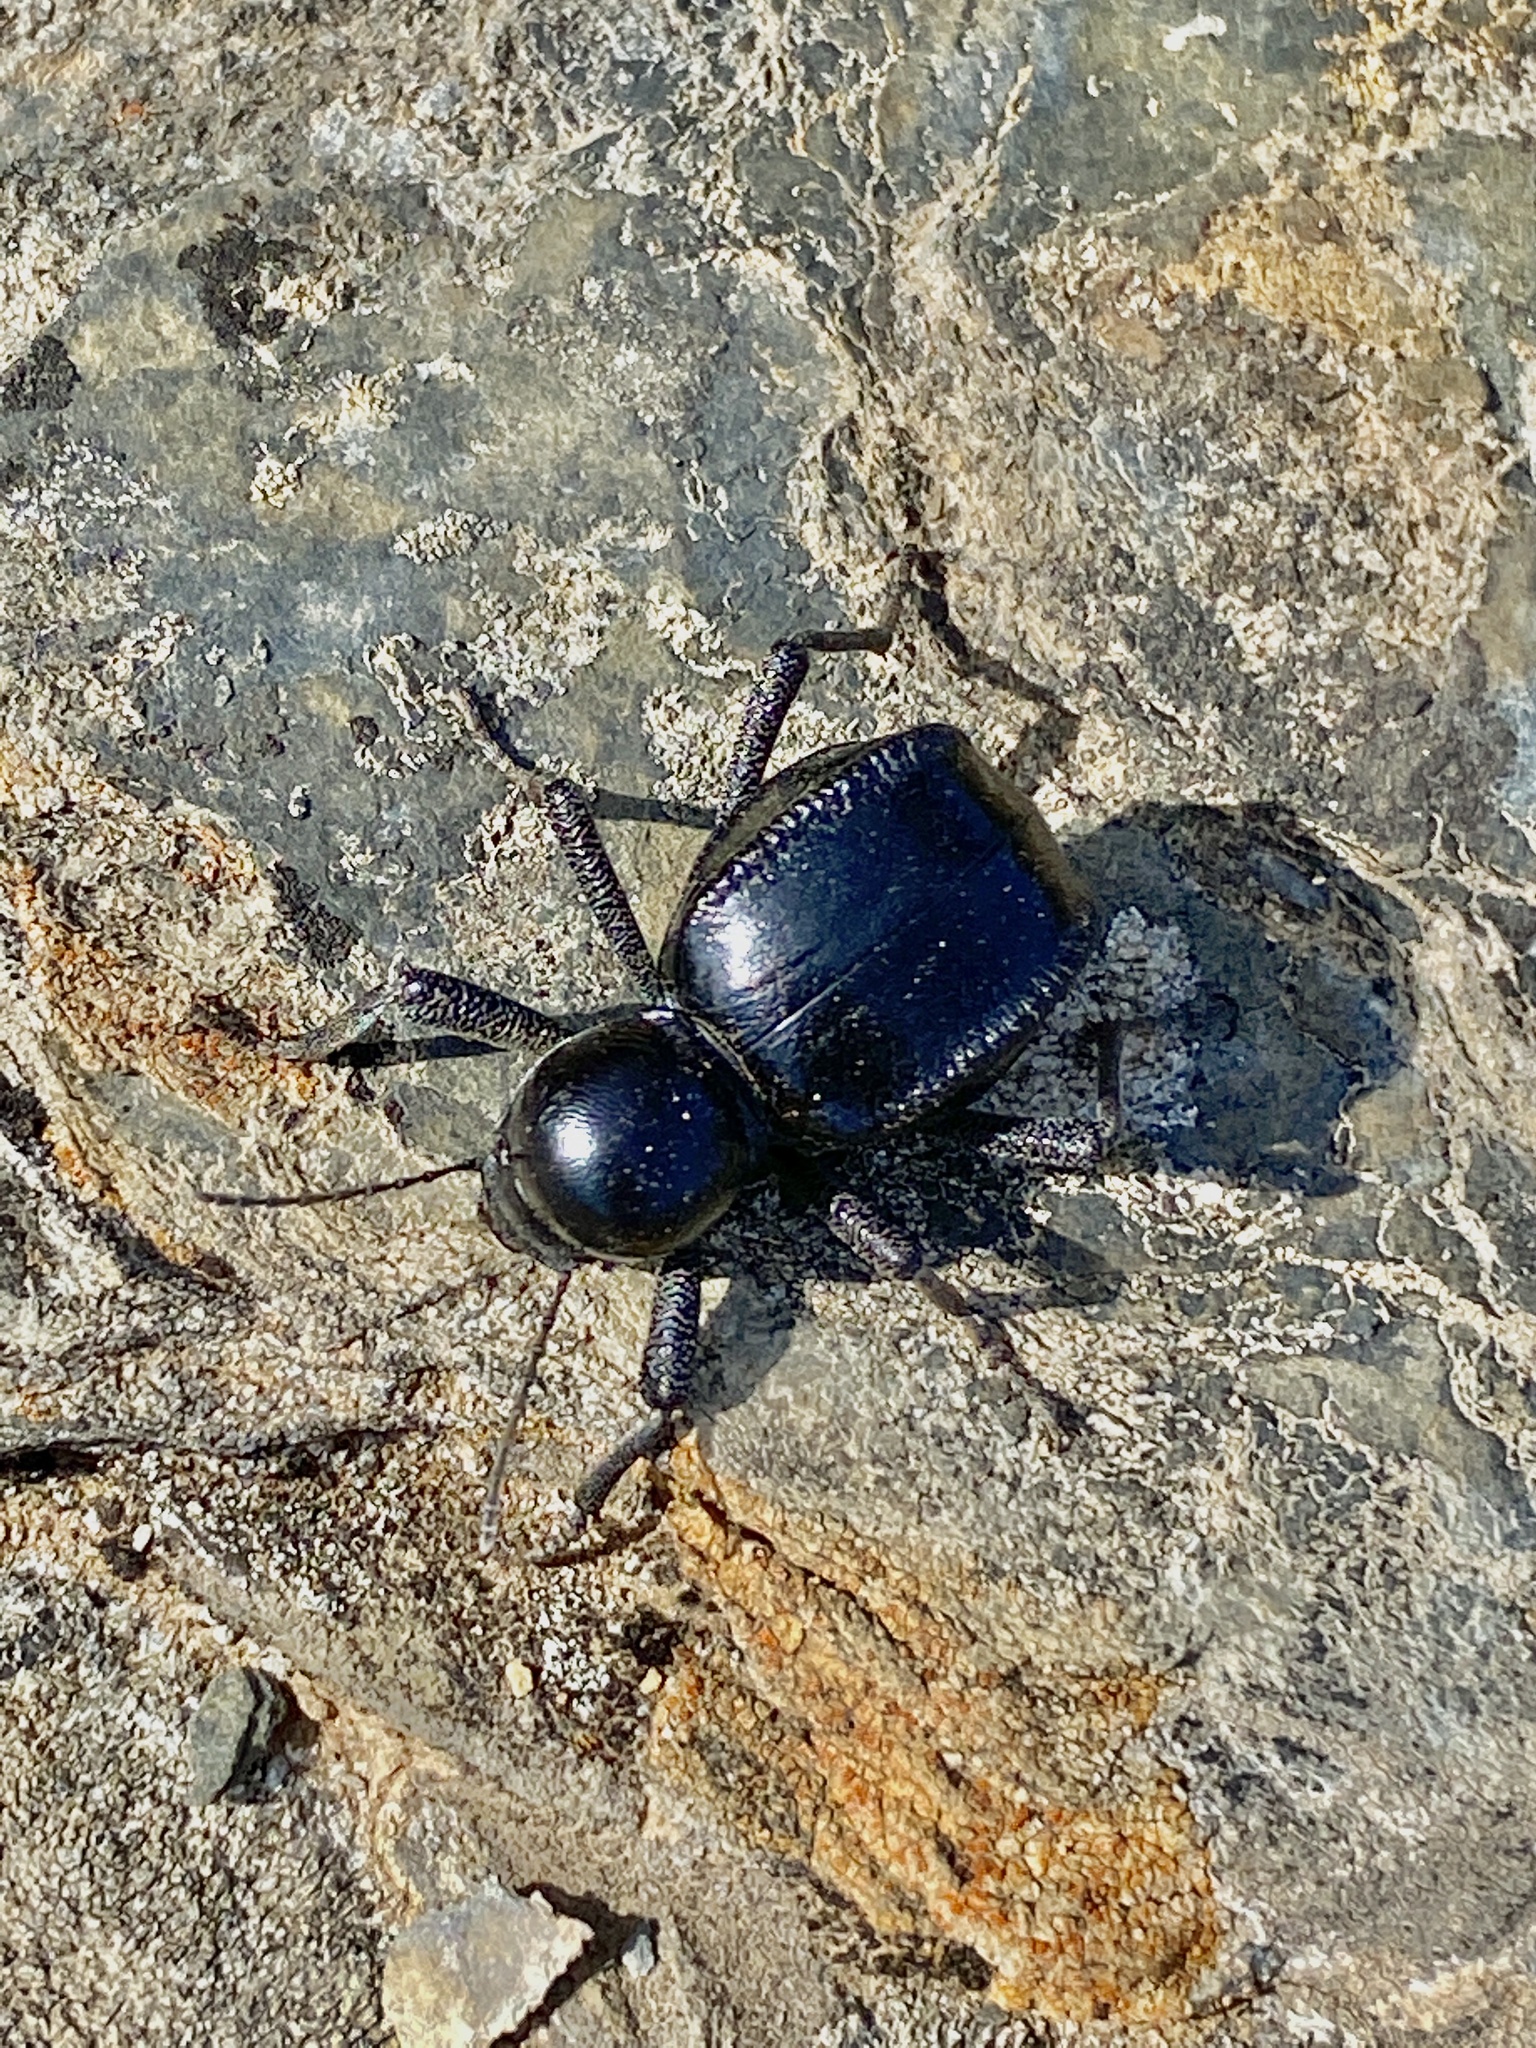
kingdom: Animalia
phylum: Arthropoda
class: Insecta
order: Coleoptera
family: Tenebrionidae
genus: Moluris
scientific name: Moluris gibba
